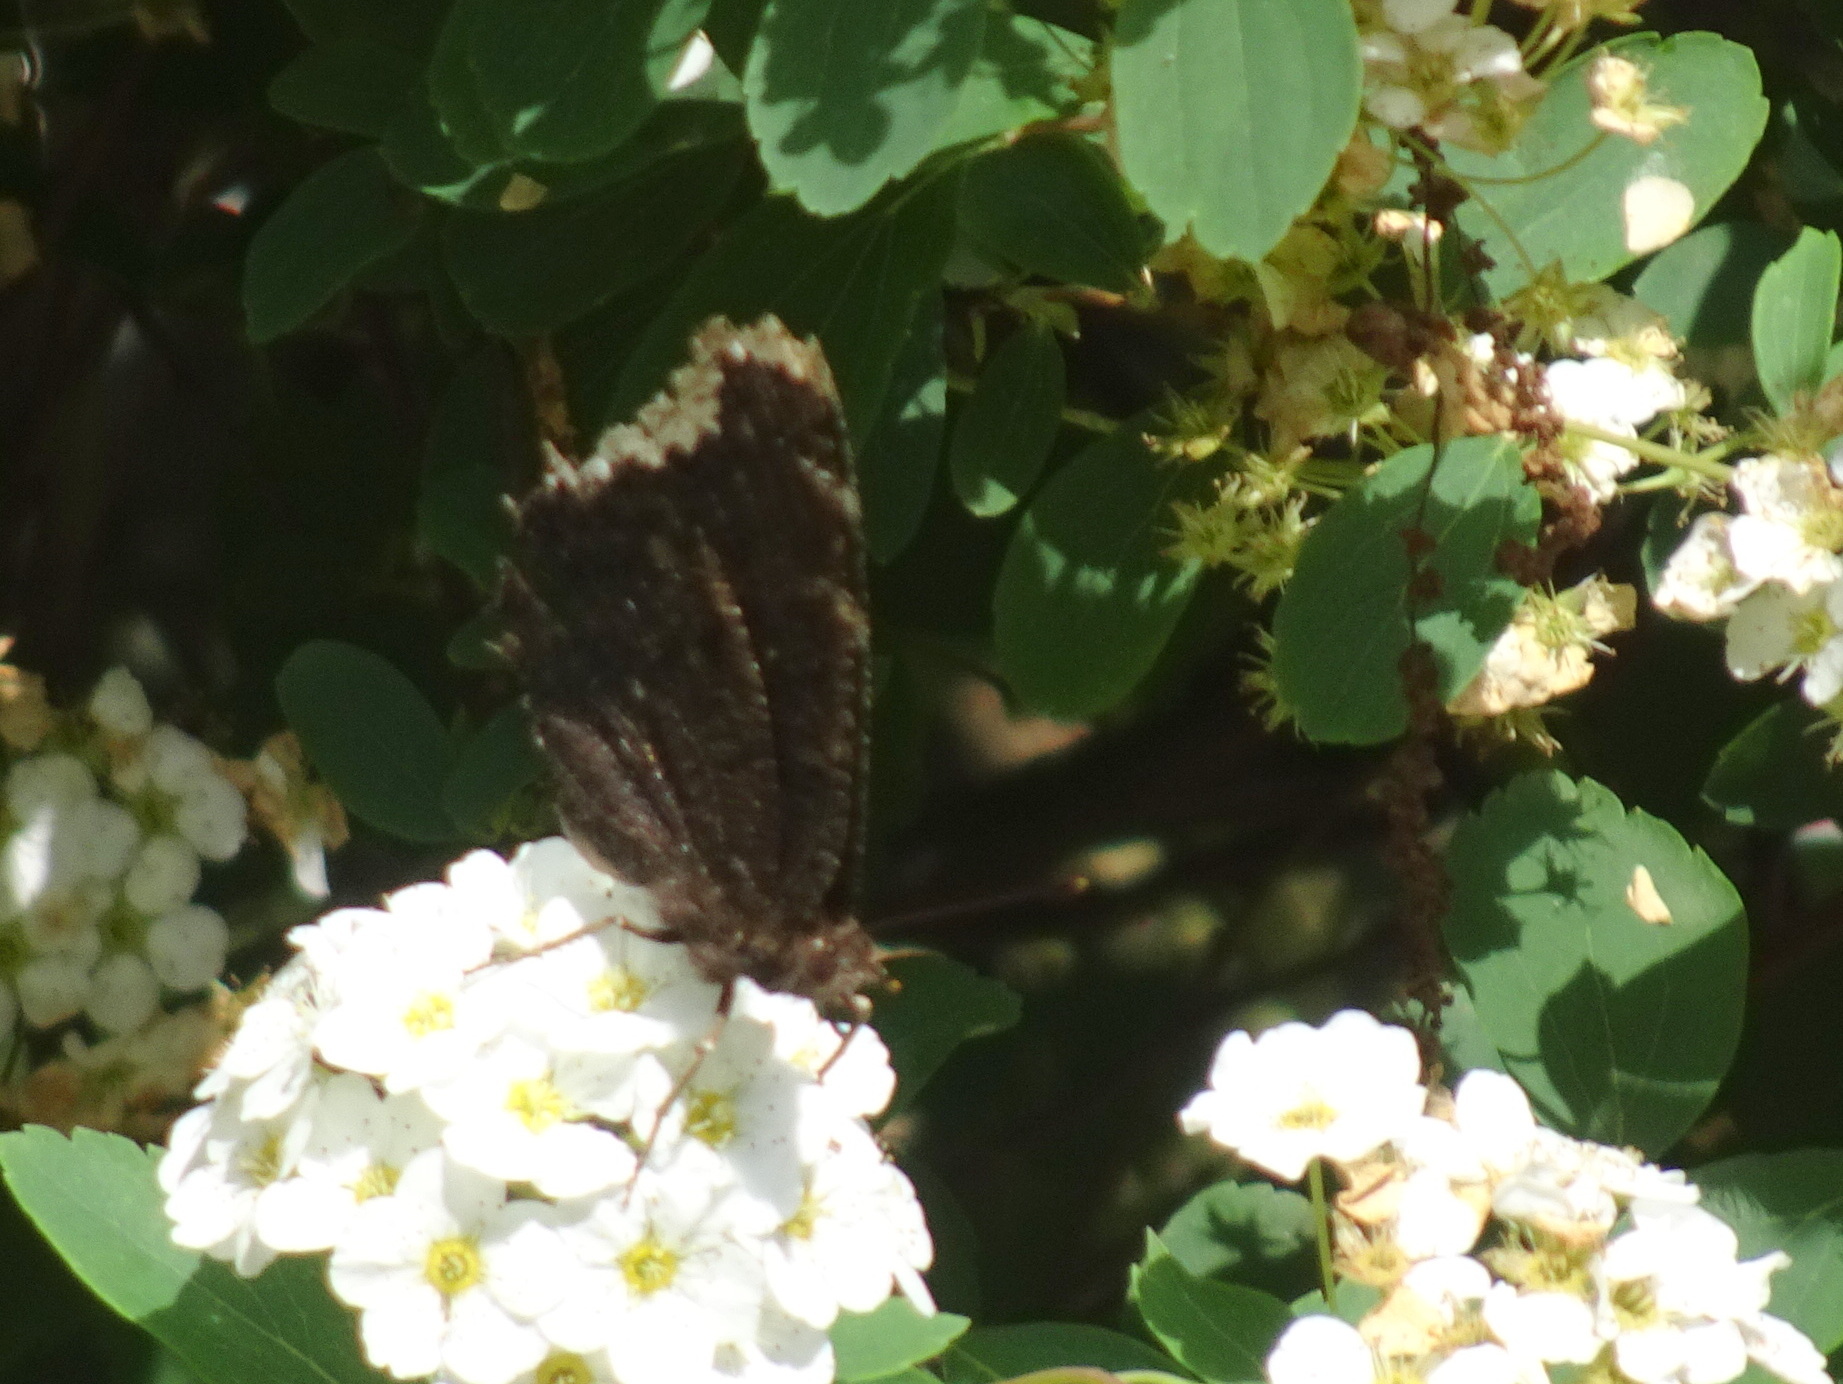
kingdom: Animalia
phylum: Arthropoda
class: Insecta
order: Lepidoptera
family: Nymphalidae
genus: Nymphalis
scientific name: Nymphalis antiopa
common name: Camberwell beauty
